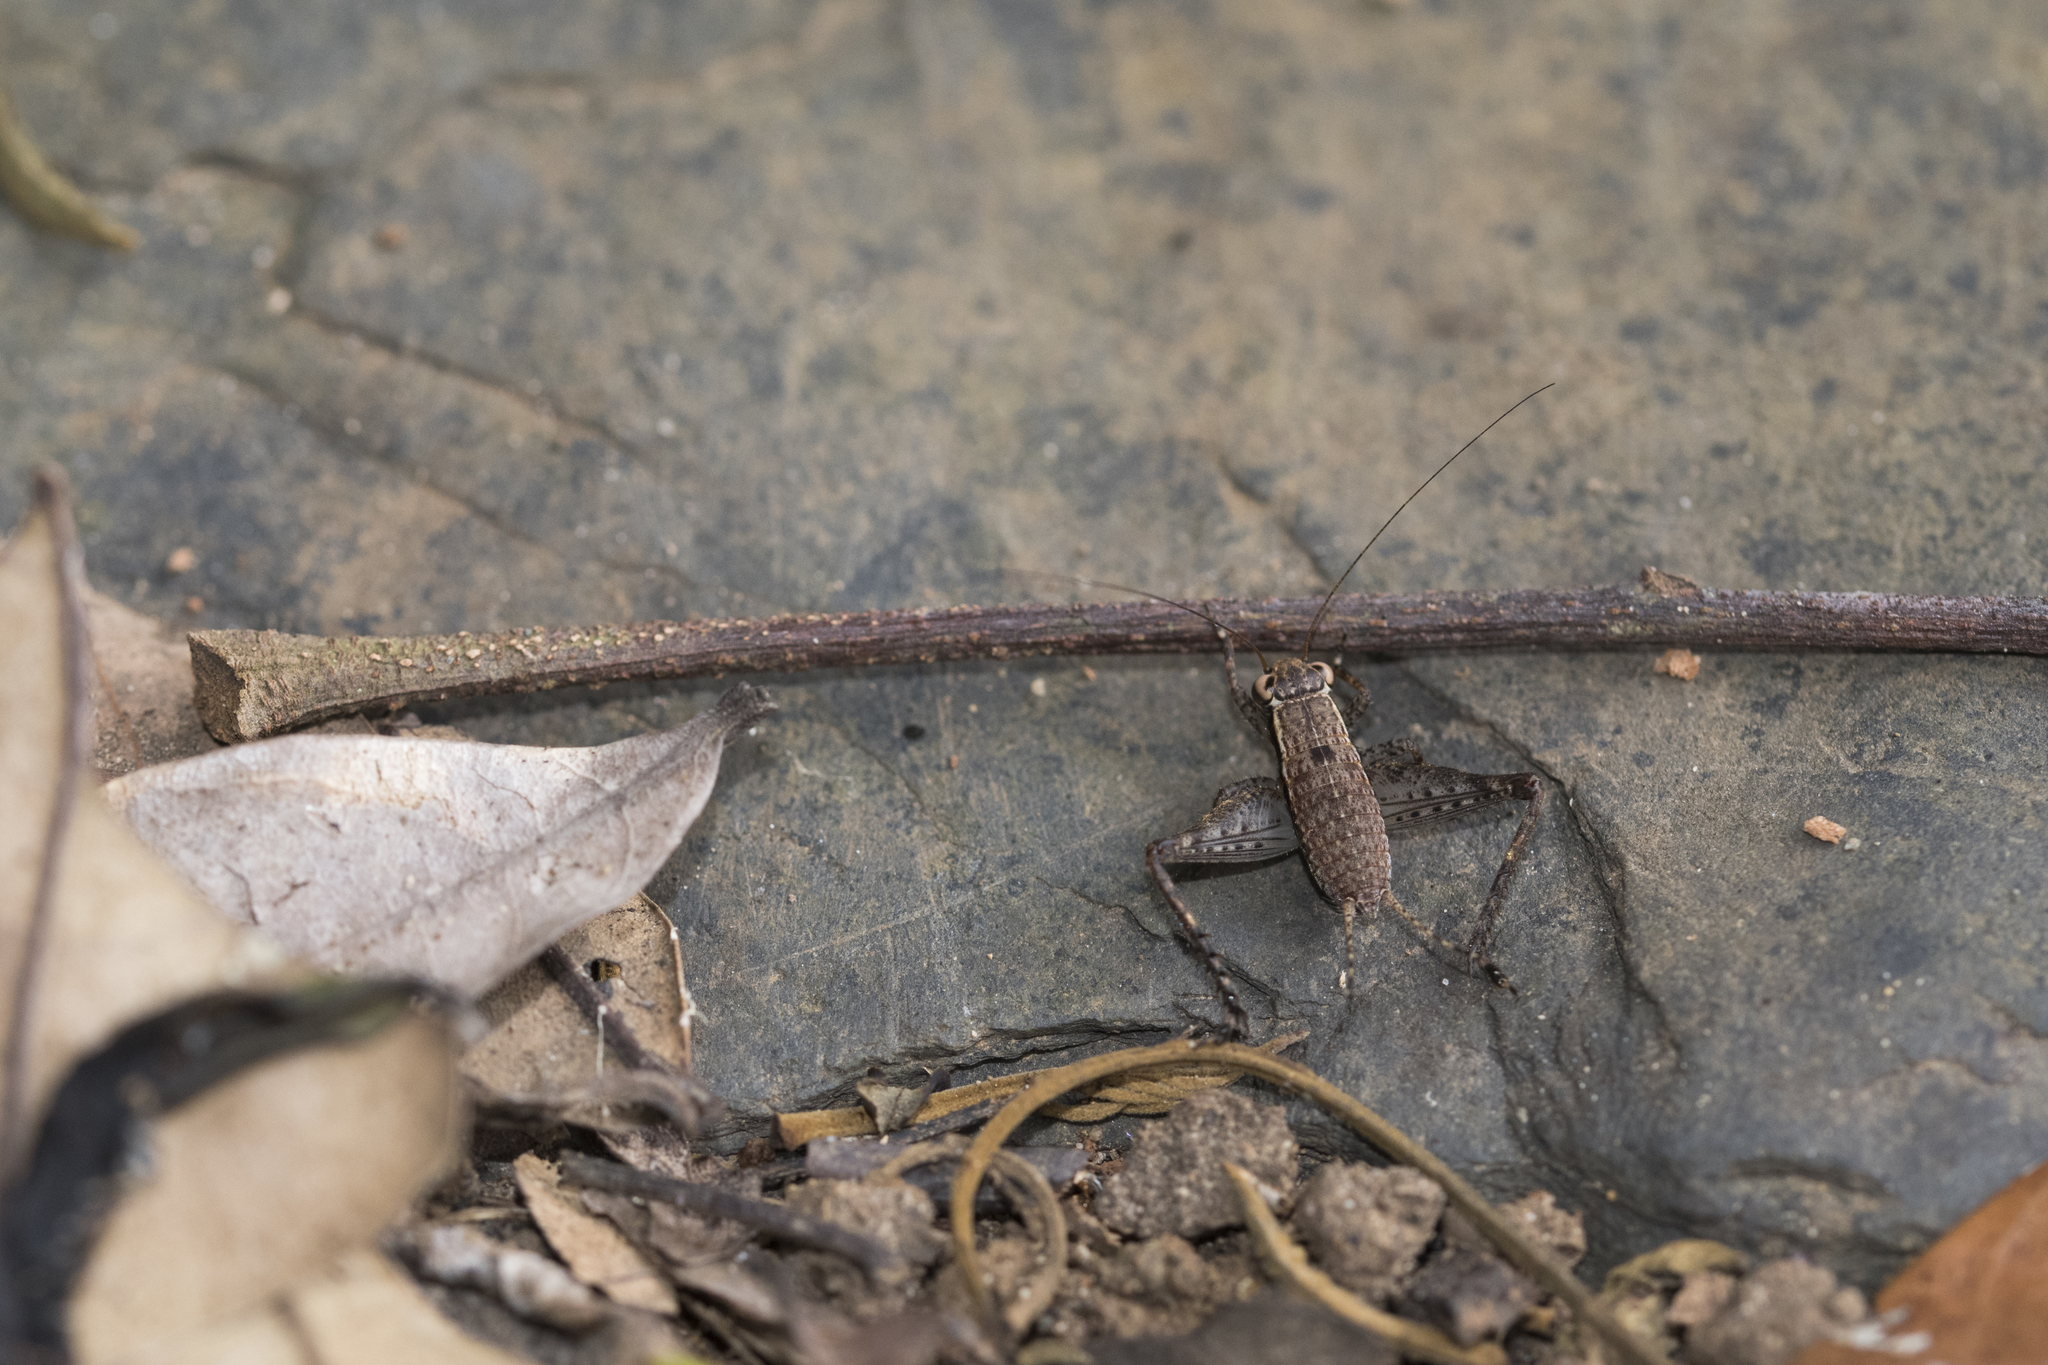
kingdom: Animalia
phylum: Arthropoda
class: Insecta
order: Orthoptera
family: Gryllidae
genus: Falcerminthus
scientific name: Falcerminthus yaeyamensis
